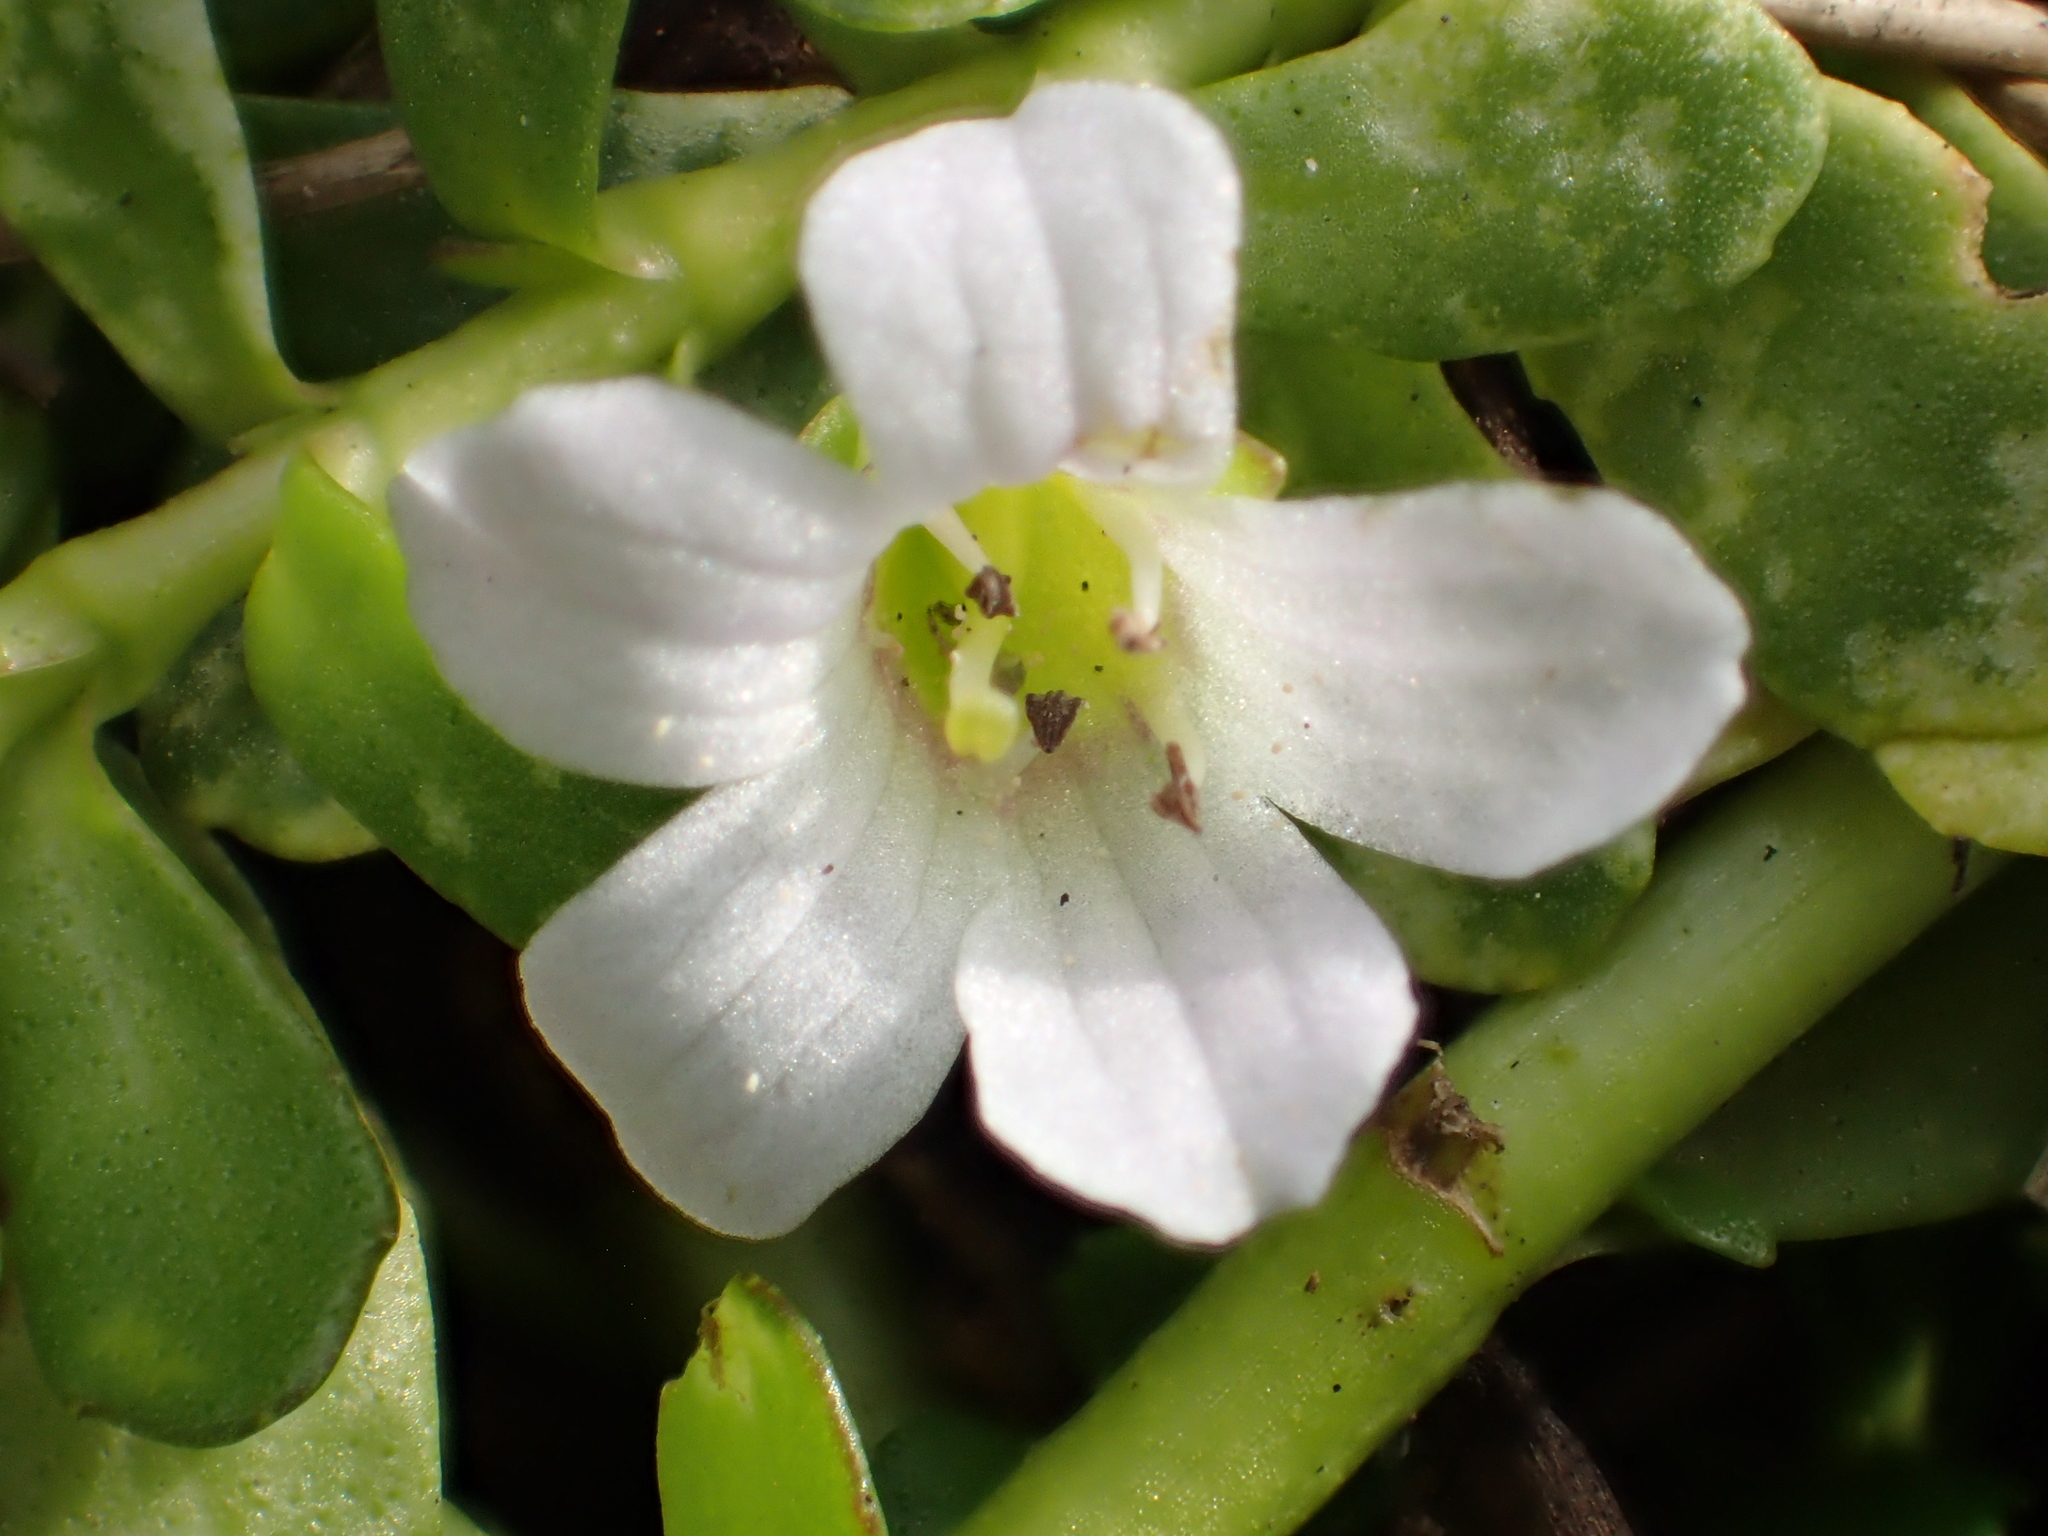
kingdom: Plantae
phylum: Tracheophyta
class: Magnoliopsida
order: Lamiales
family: Plantaginaceae
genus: Bacopa
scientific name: Bacopa monnieri
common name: Indian-pennywort
